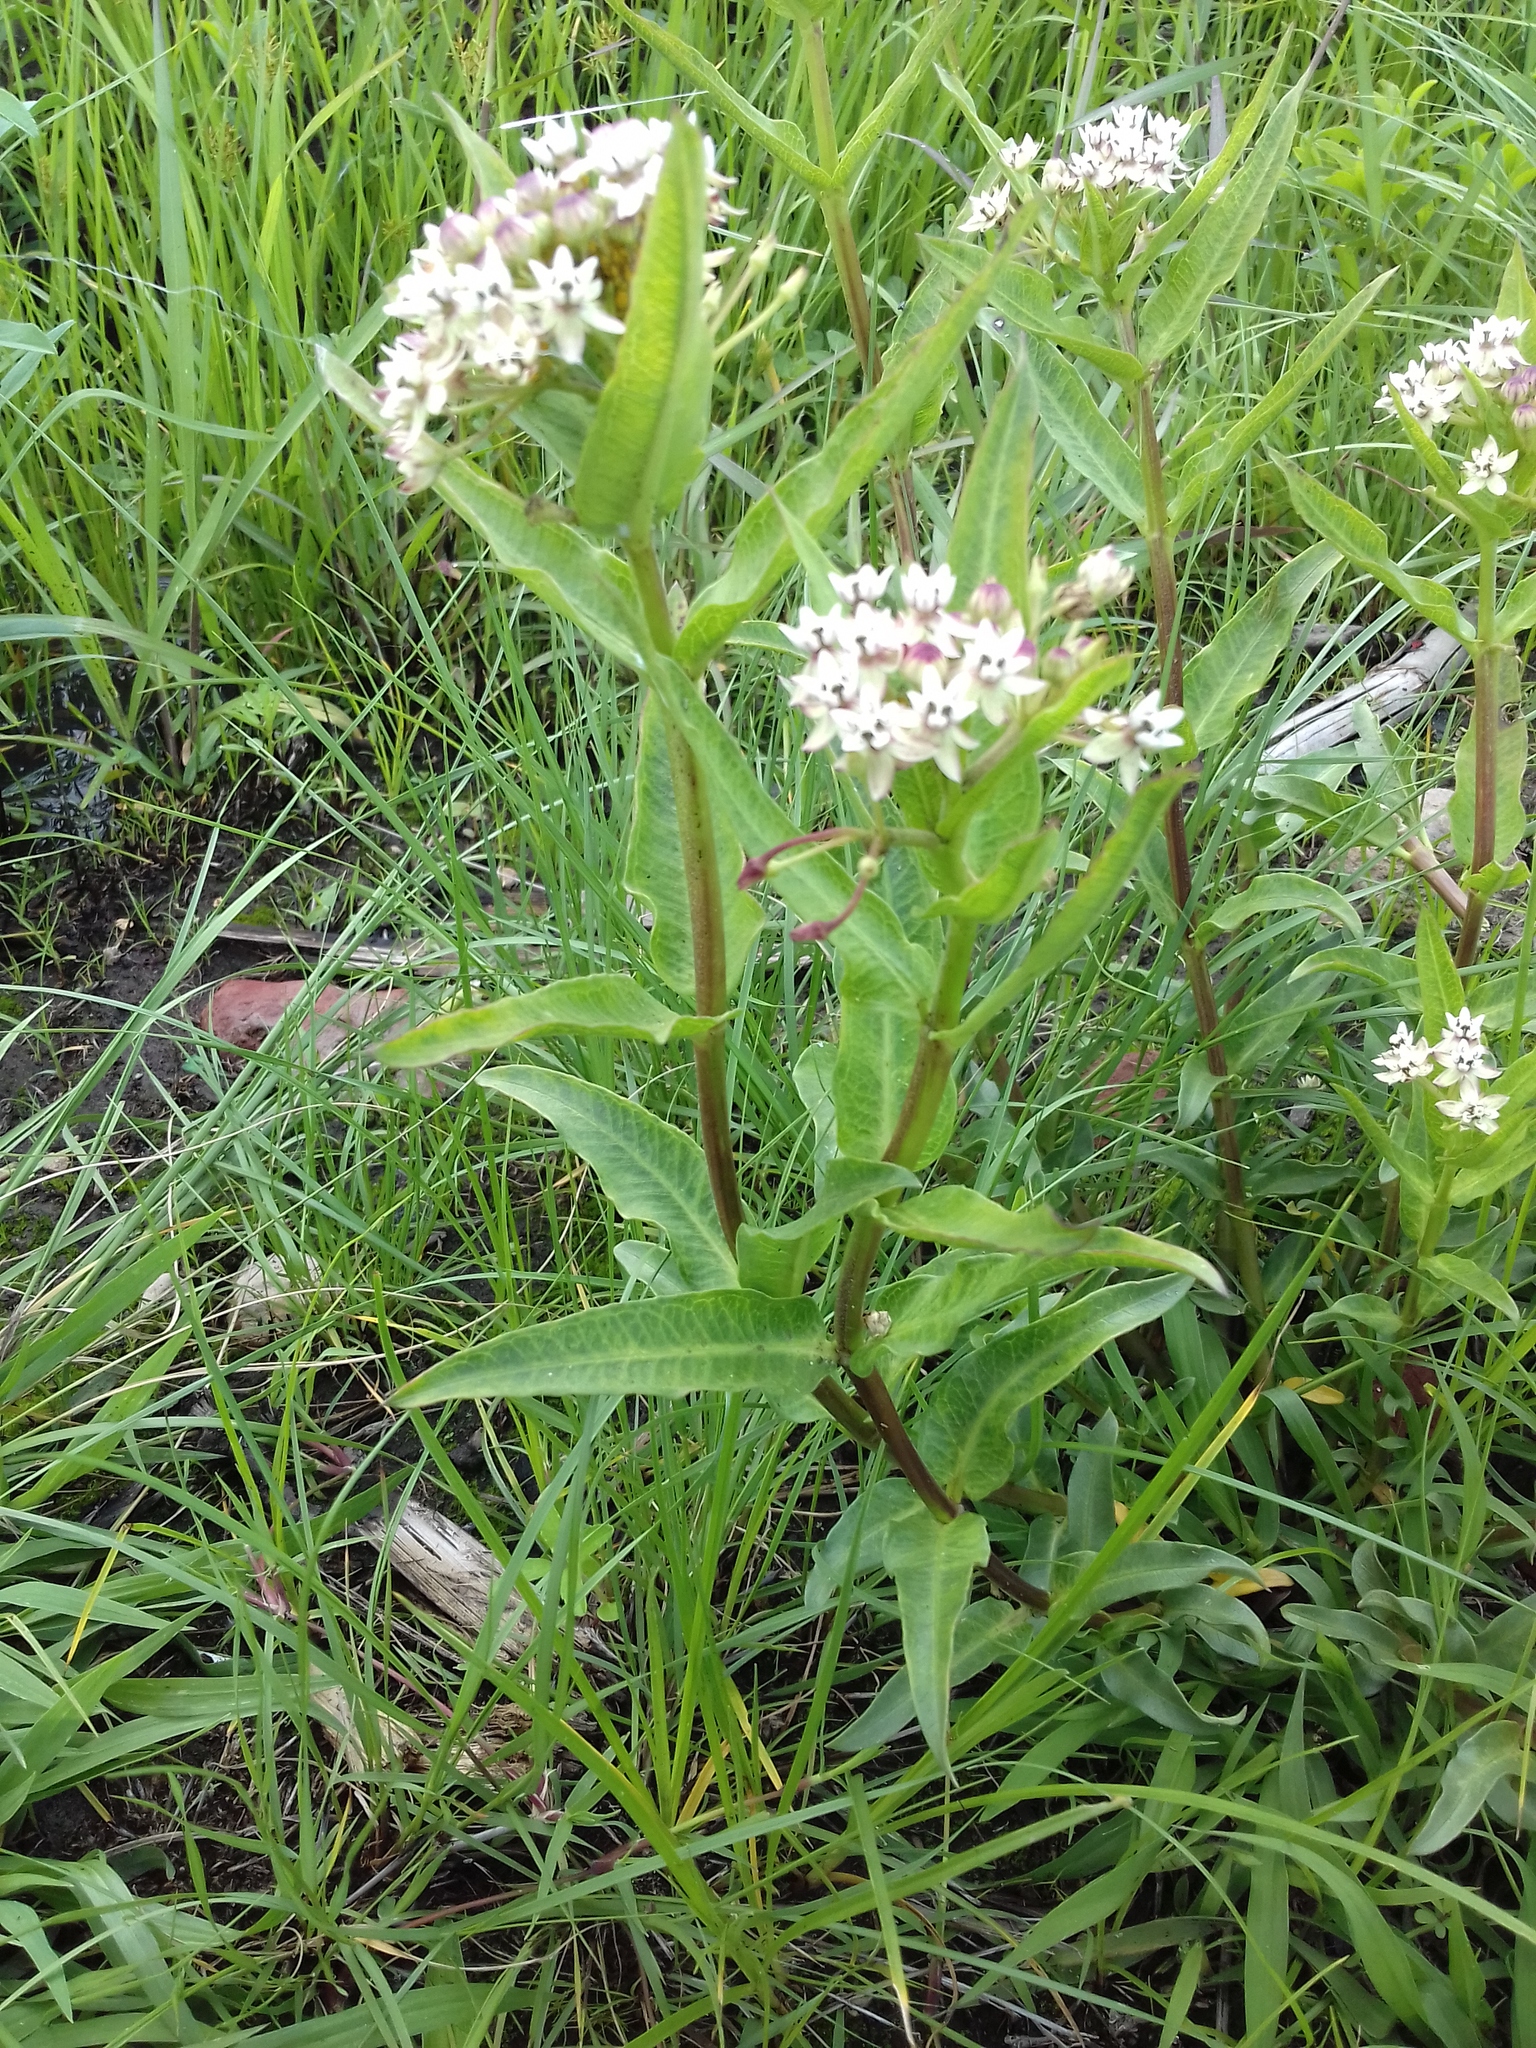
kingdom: Plantae
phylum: Tracheophyta
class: Magnoliopsida
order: Gentianales
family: Apocynaceae
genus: Asclepias
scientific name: Asclepias pratensis
